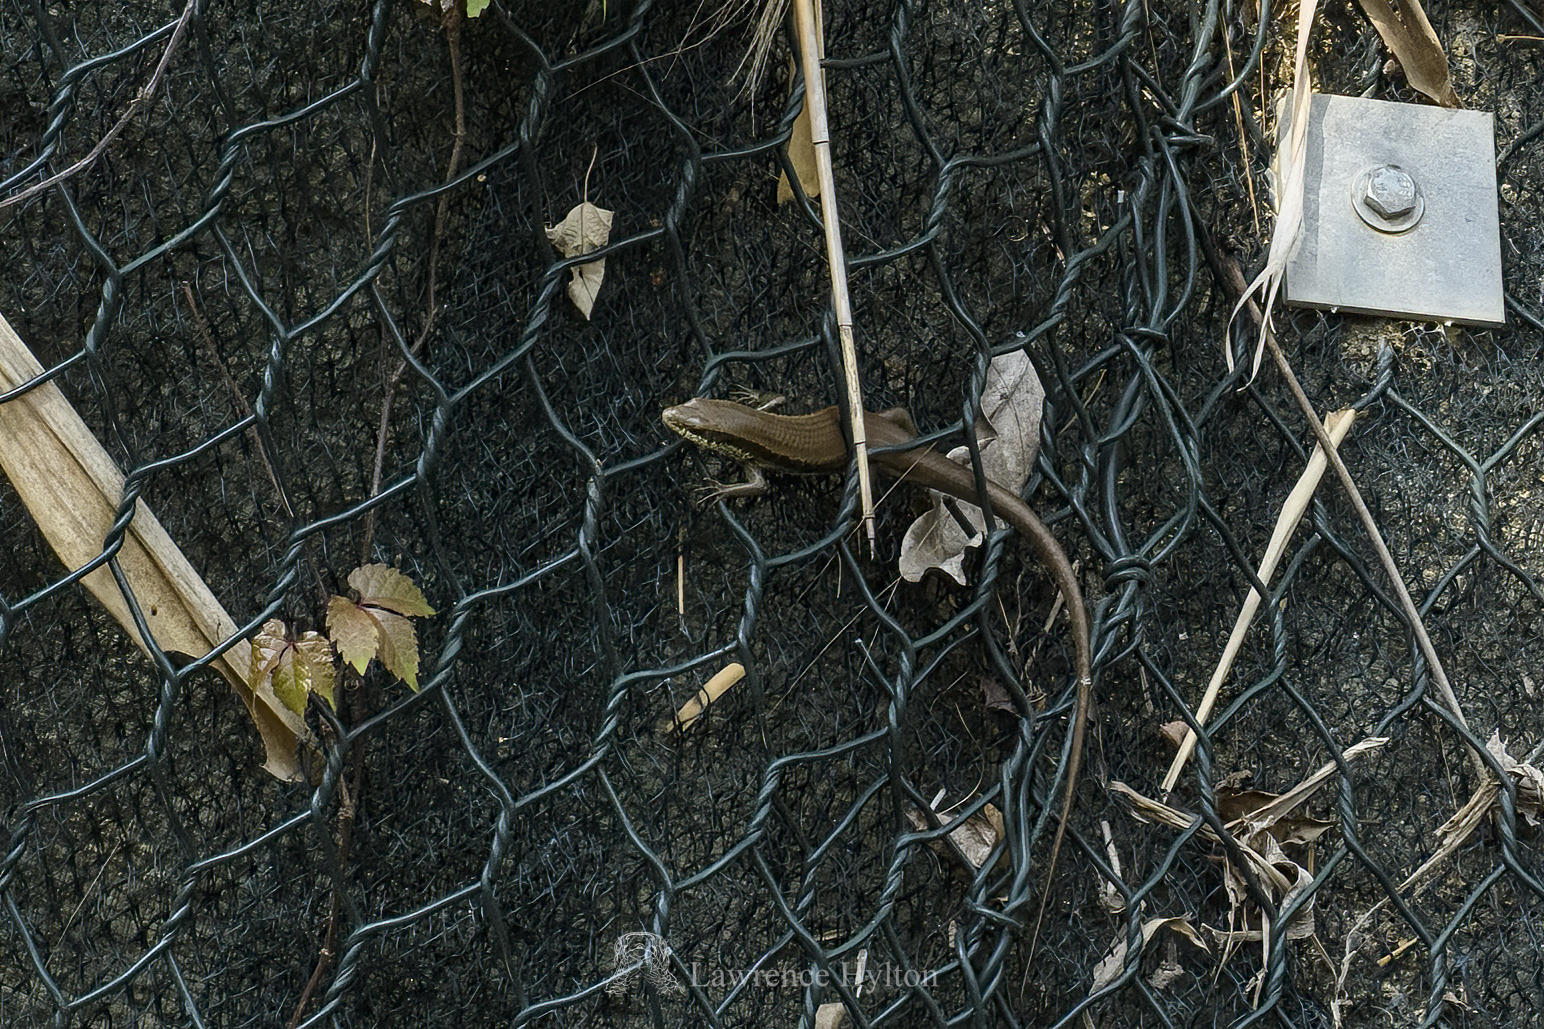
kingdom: Animalia
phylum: Chordata
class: Squamata
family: Scincidae
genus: Eutropis
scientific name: Eutropis longicaudata
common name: Long-tailed sun skink
